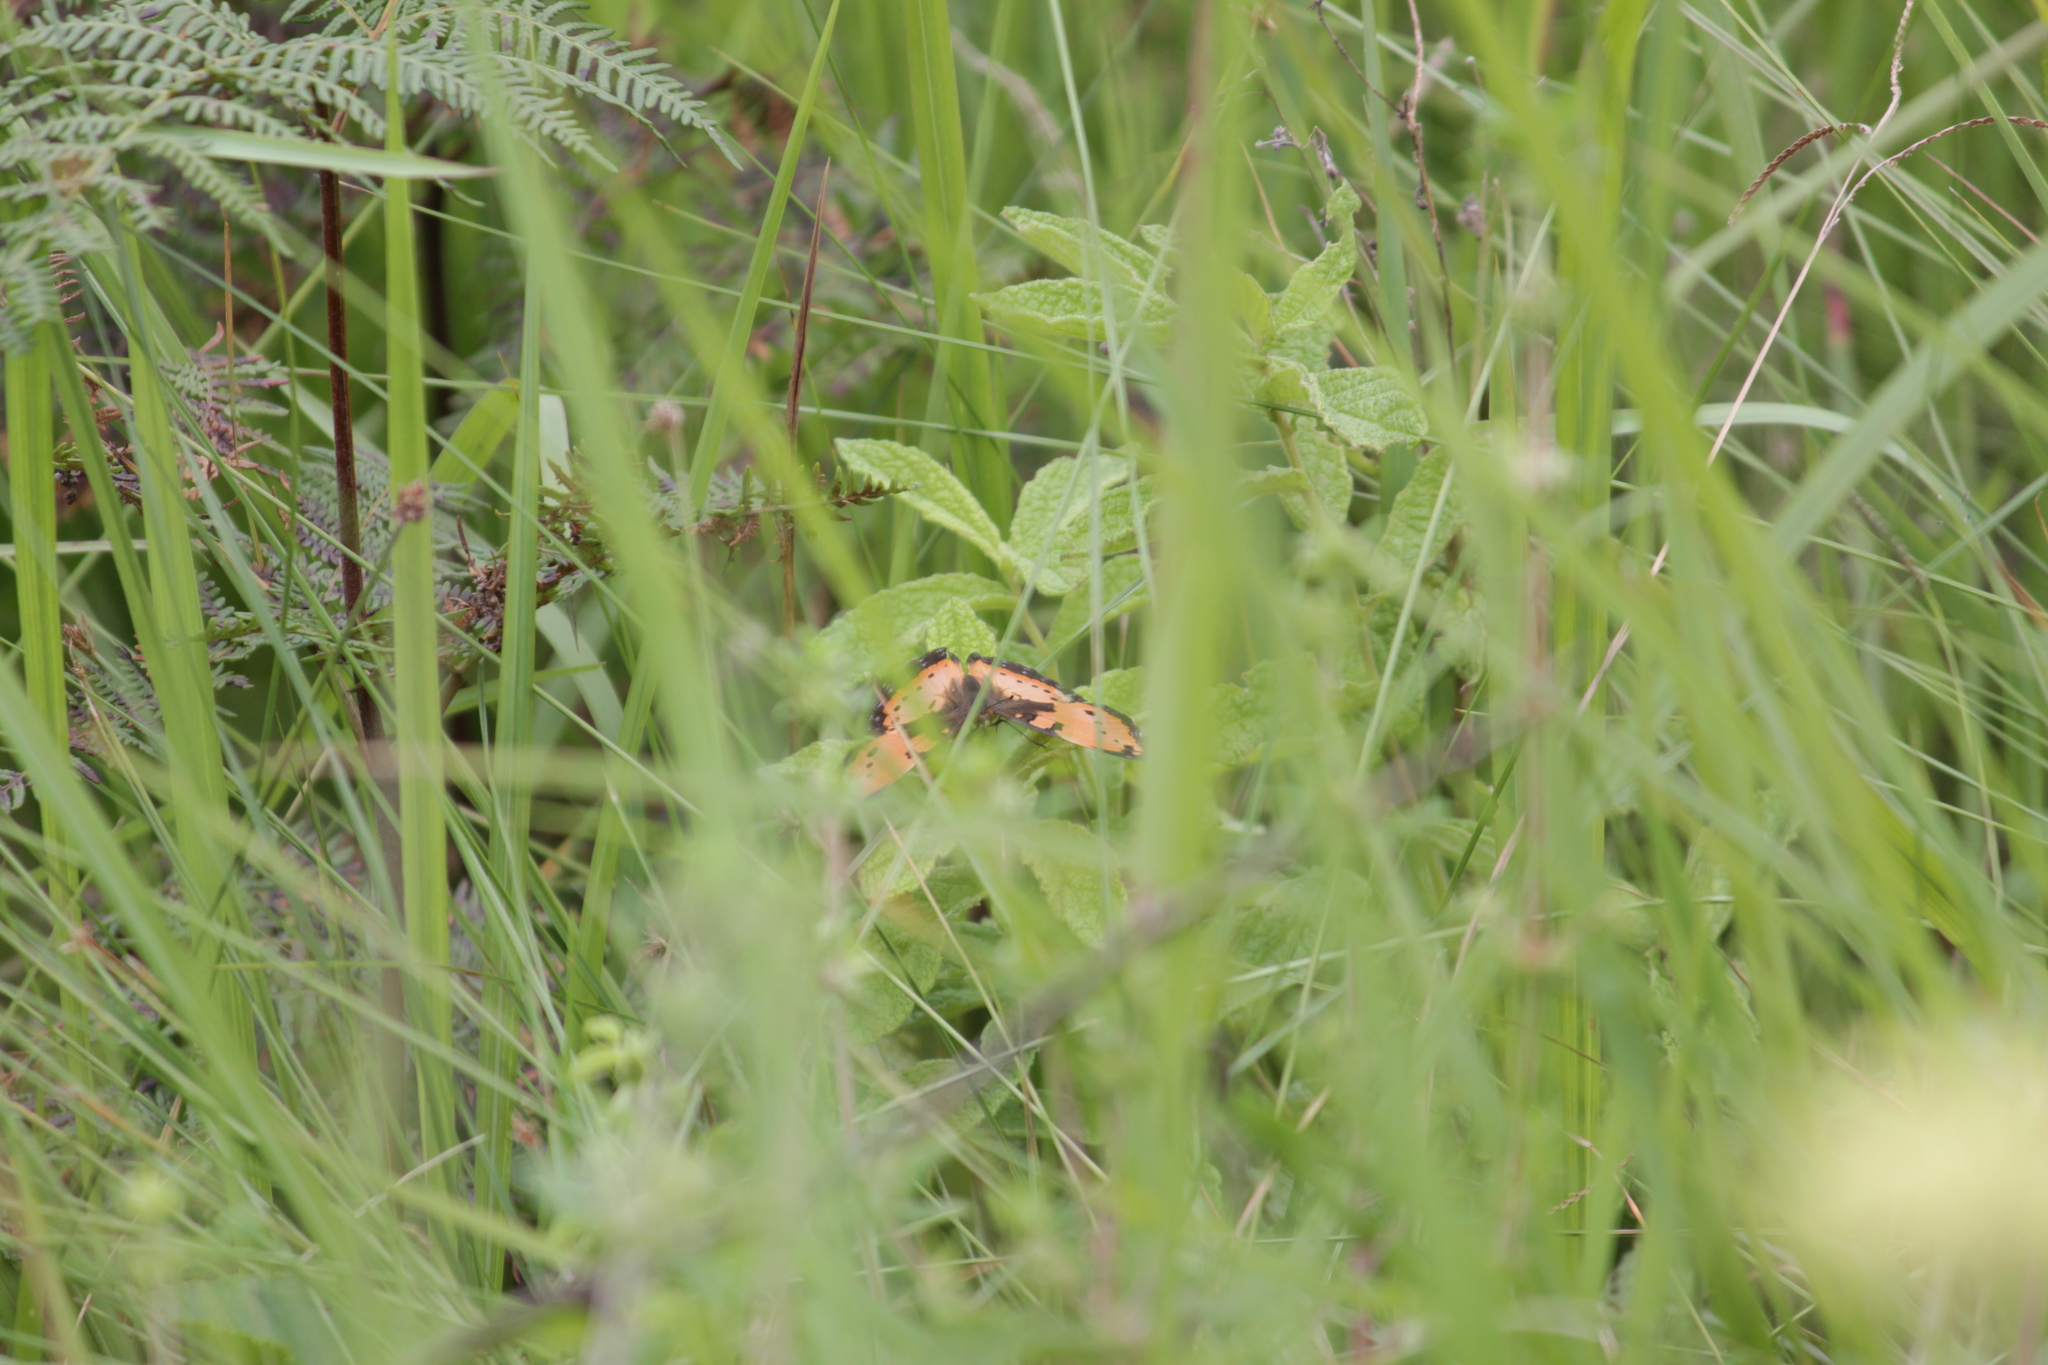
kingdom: Animalia
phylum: Arthropoda
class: Insecta
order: Lepidoptera
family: Nymphalidae
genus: Precis
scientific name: Precis octavia
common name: Gaudy commodore
